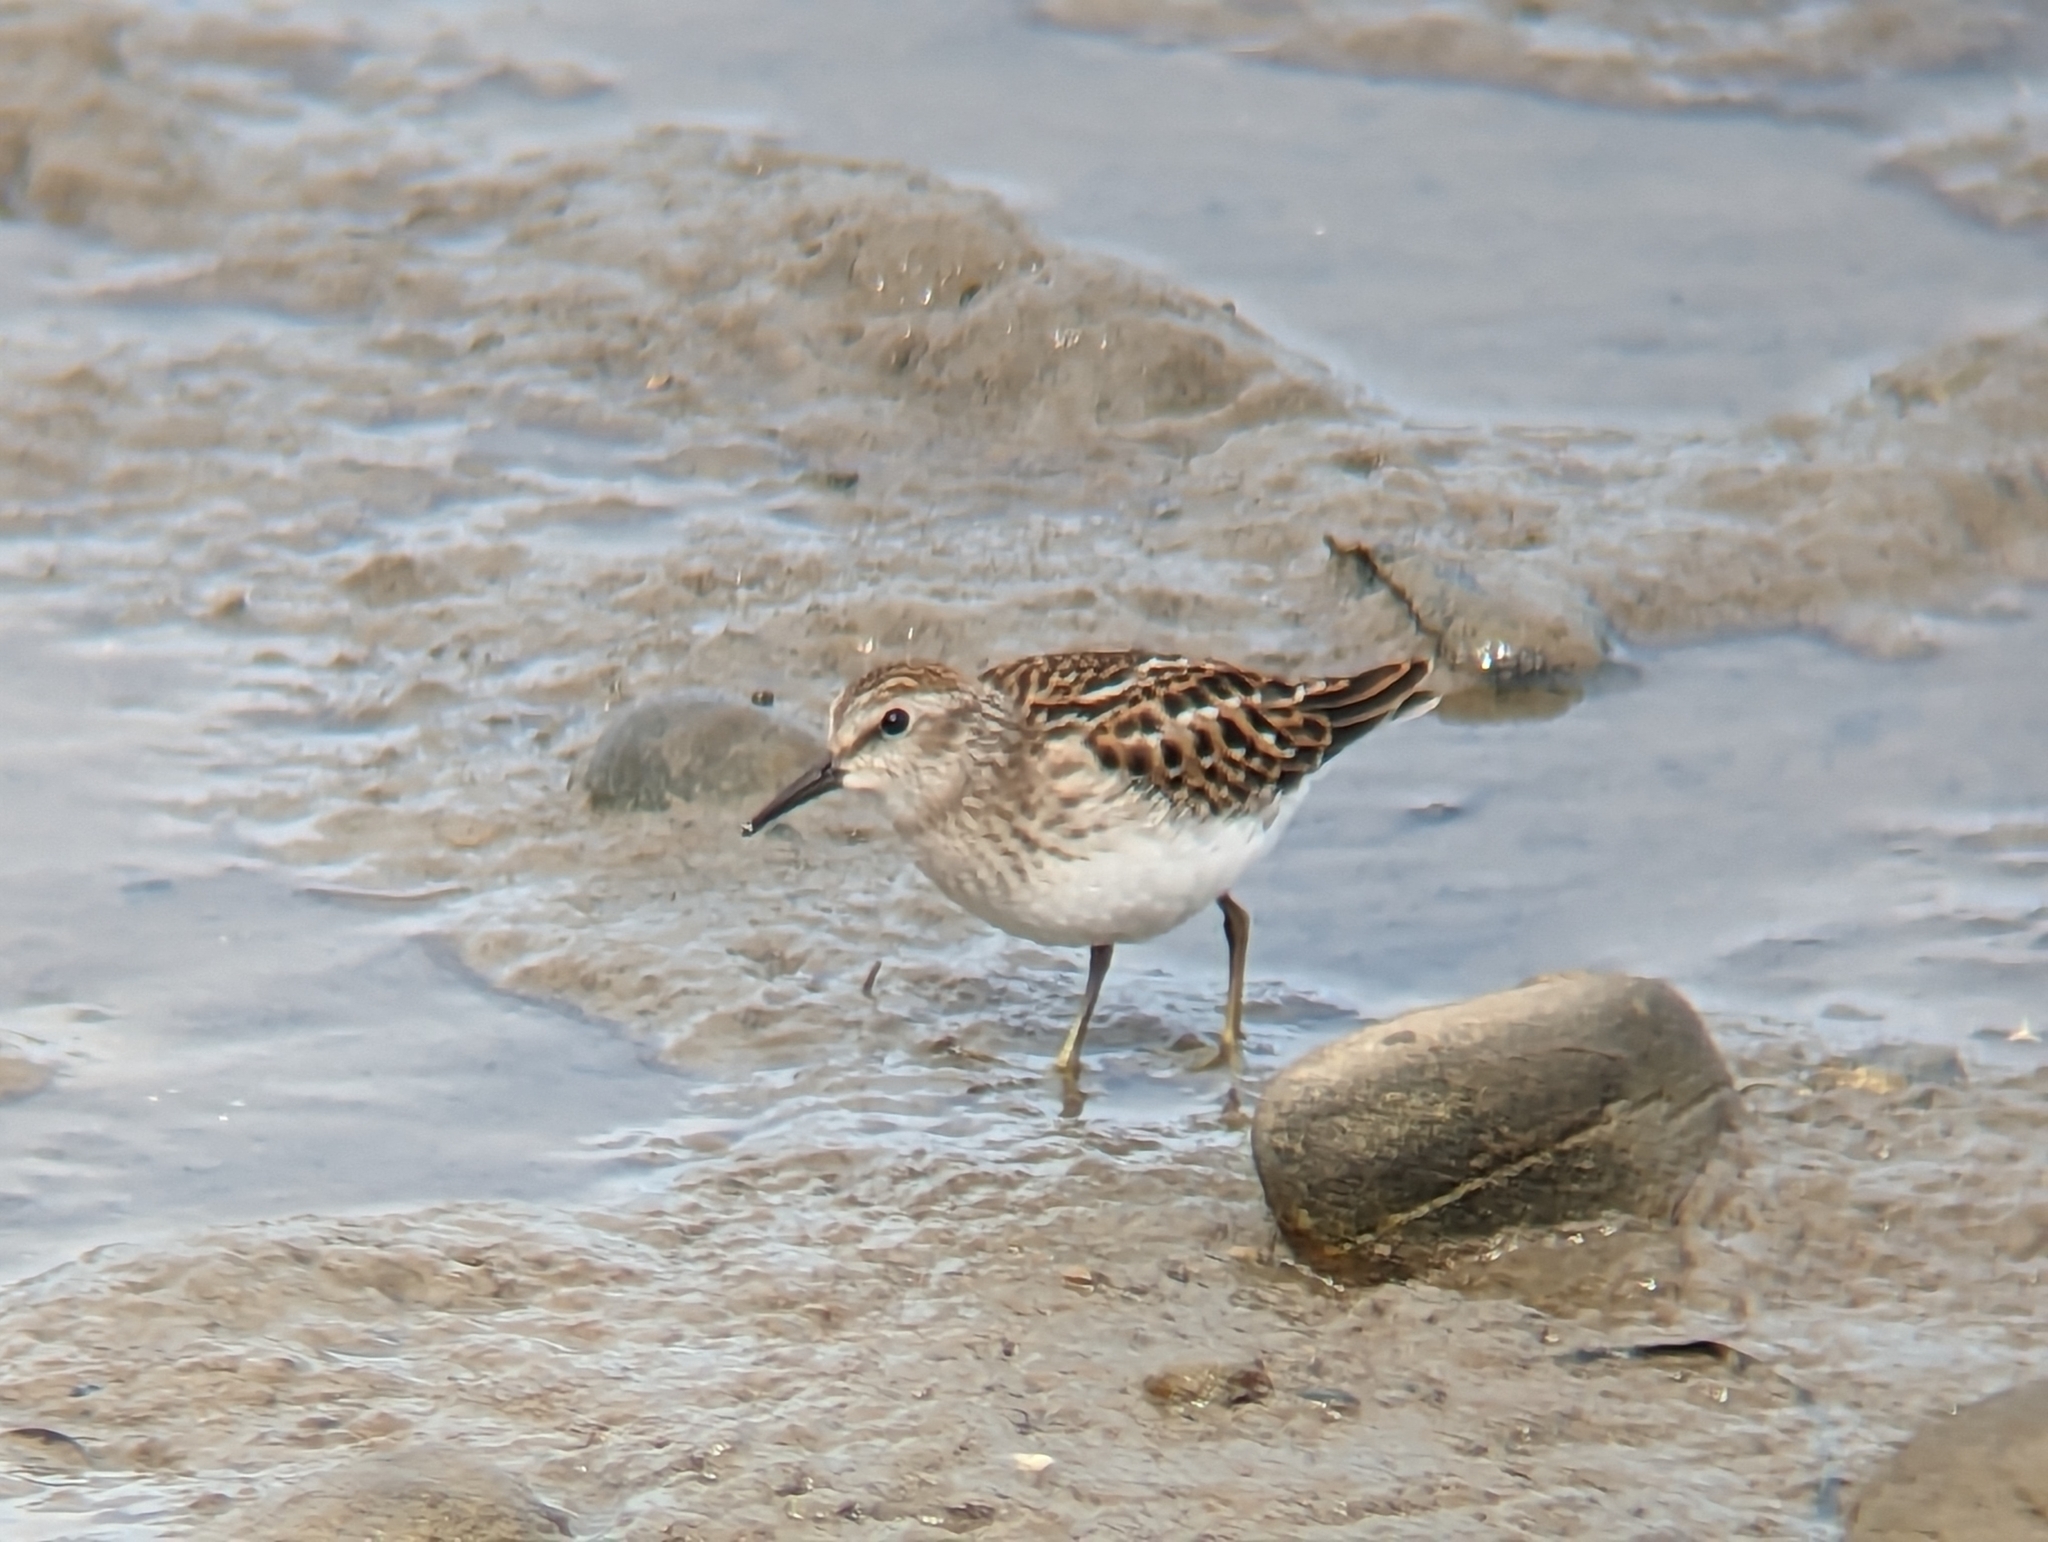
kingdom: Animalia
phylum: Chordata
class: Aves
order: Charadriiformes
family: Scolopacidae
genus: Calidris
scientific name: Calidris minutilla
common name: Least sandpiper
